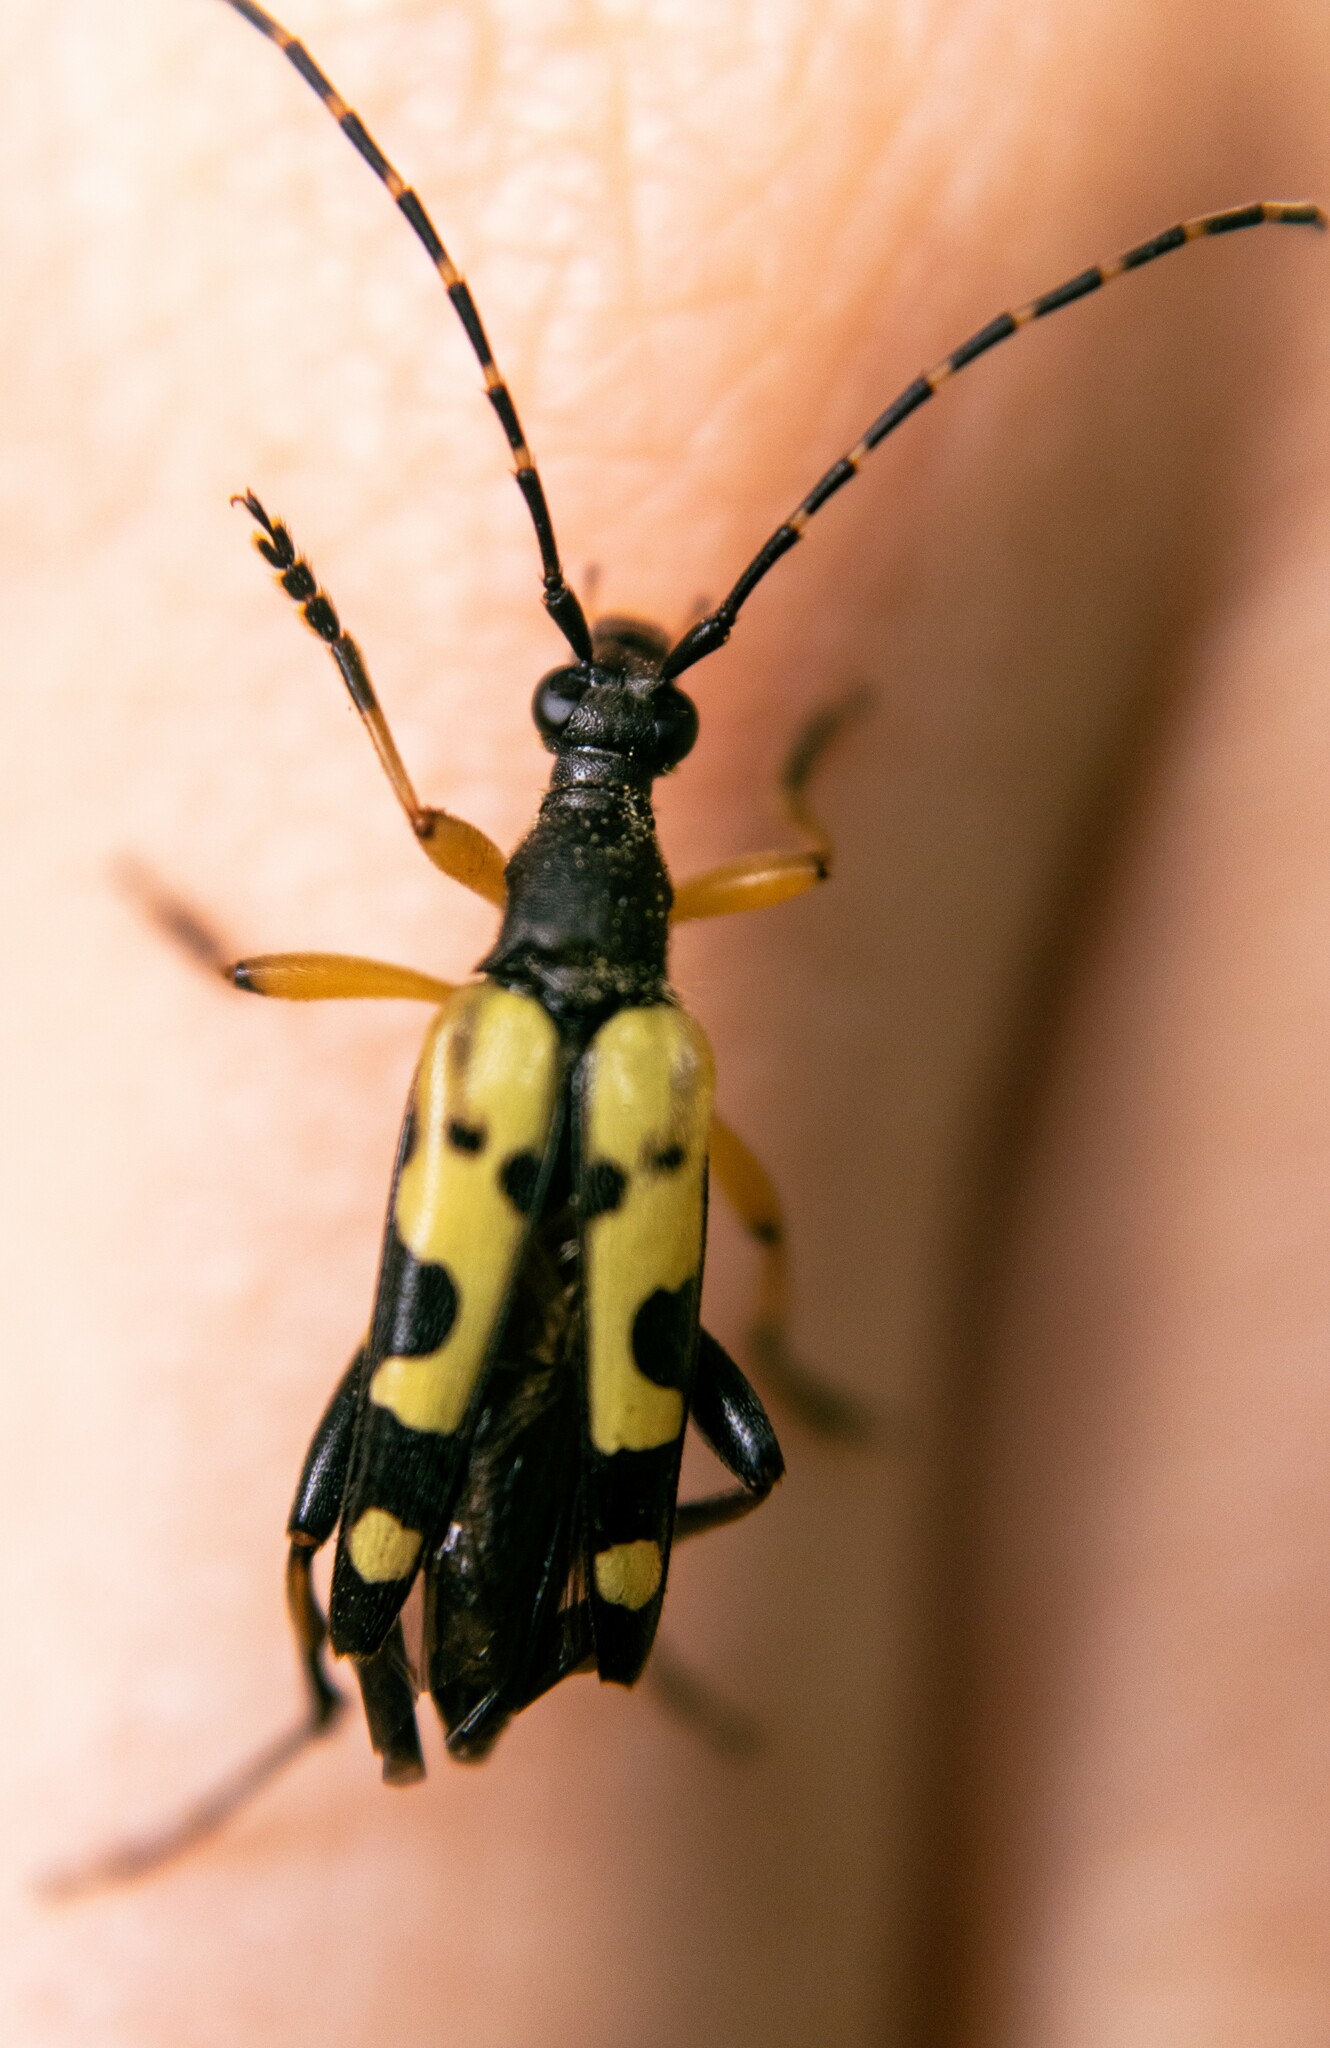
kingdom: Animalia
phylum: Arthropoda
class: Insecta
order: Coleoptera
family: Cerambycidae
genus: Rutpela
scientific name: Rutpela maculata
